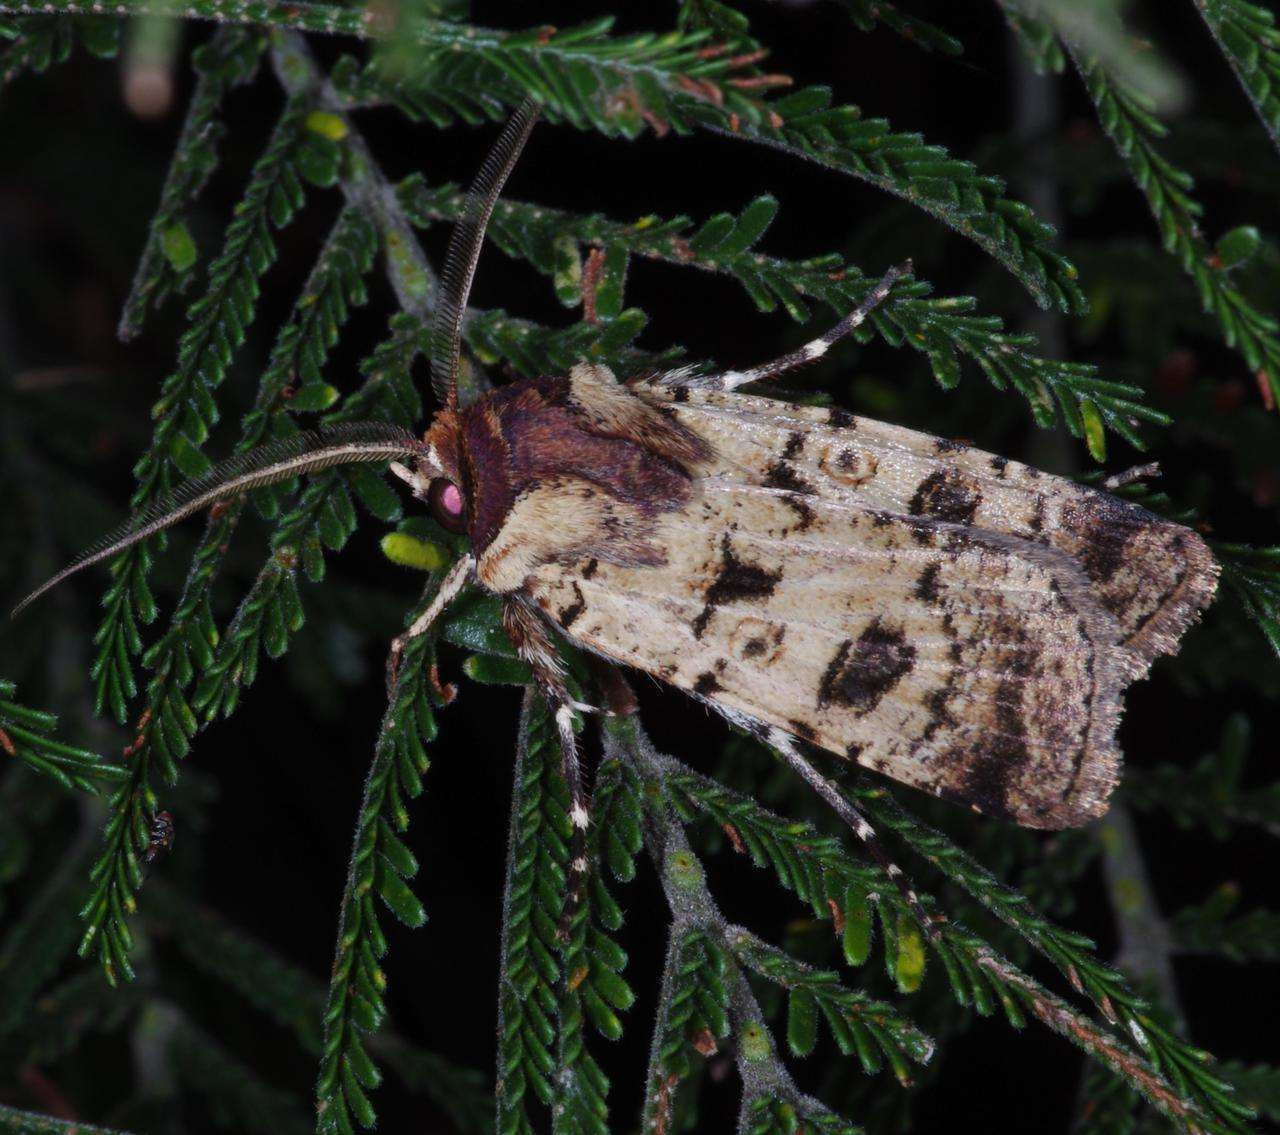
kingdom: Animalia
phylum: Arthropoda
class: Insecta
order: Lepidoptera
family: Noctuidae
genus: Agrotis
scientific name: Agrotis porphyricollis
